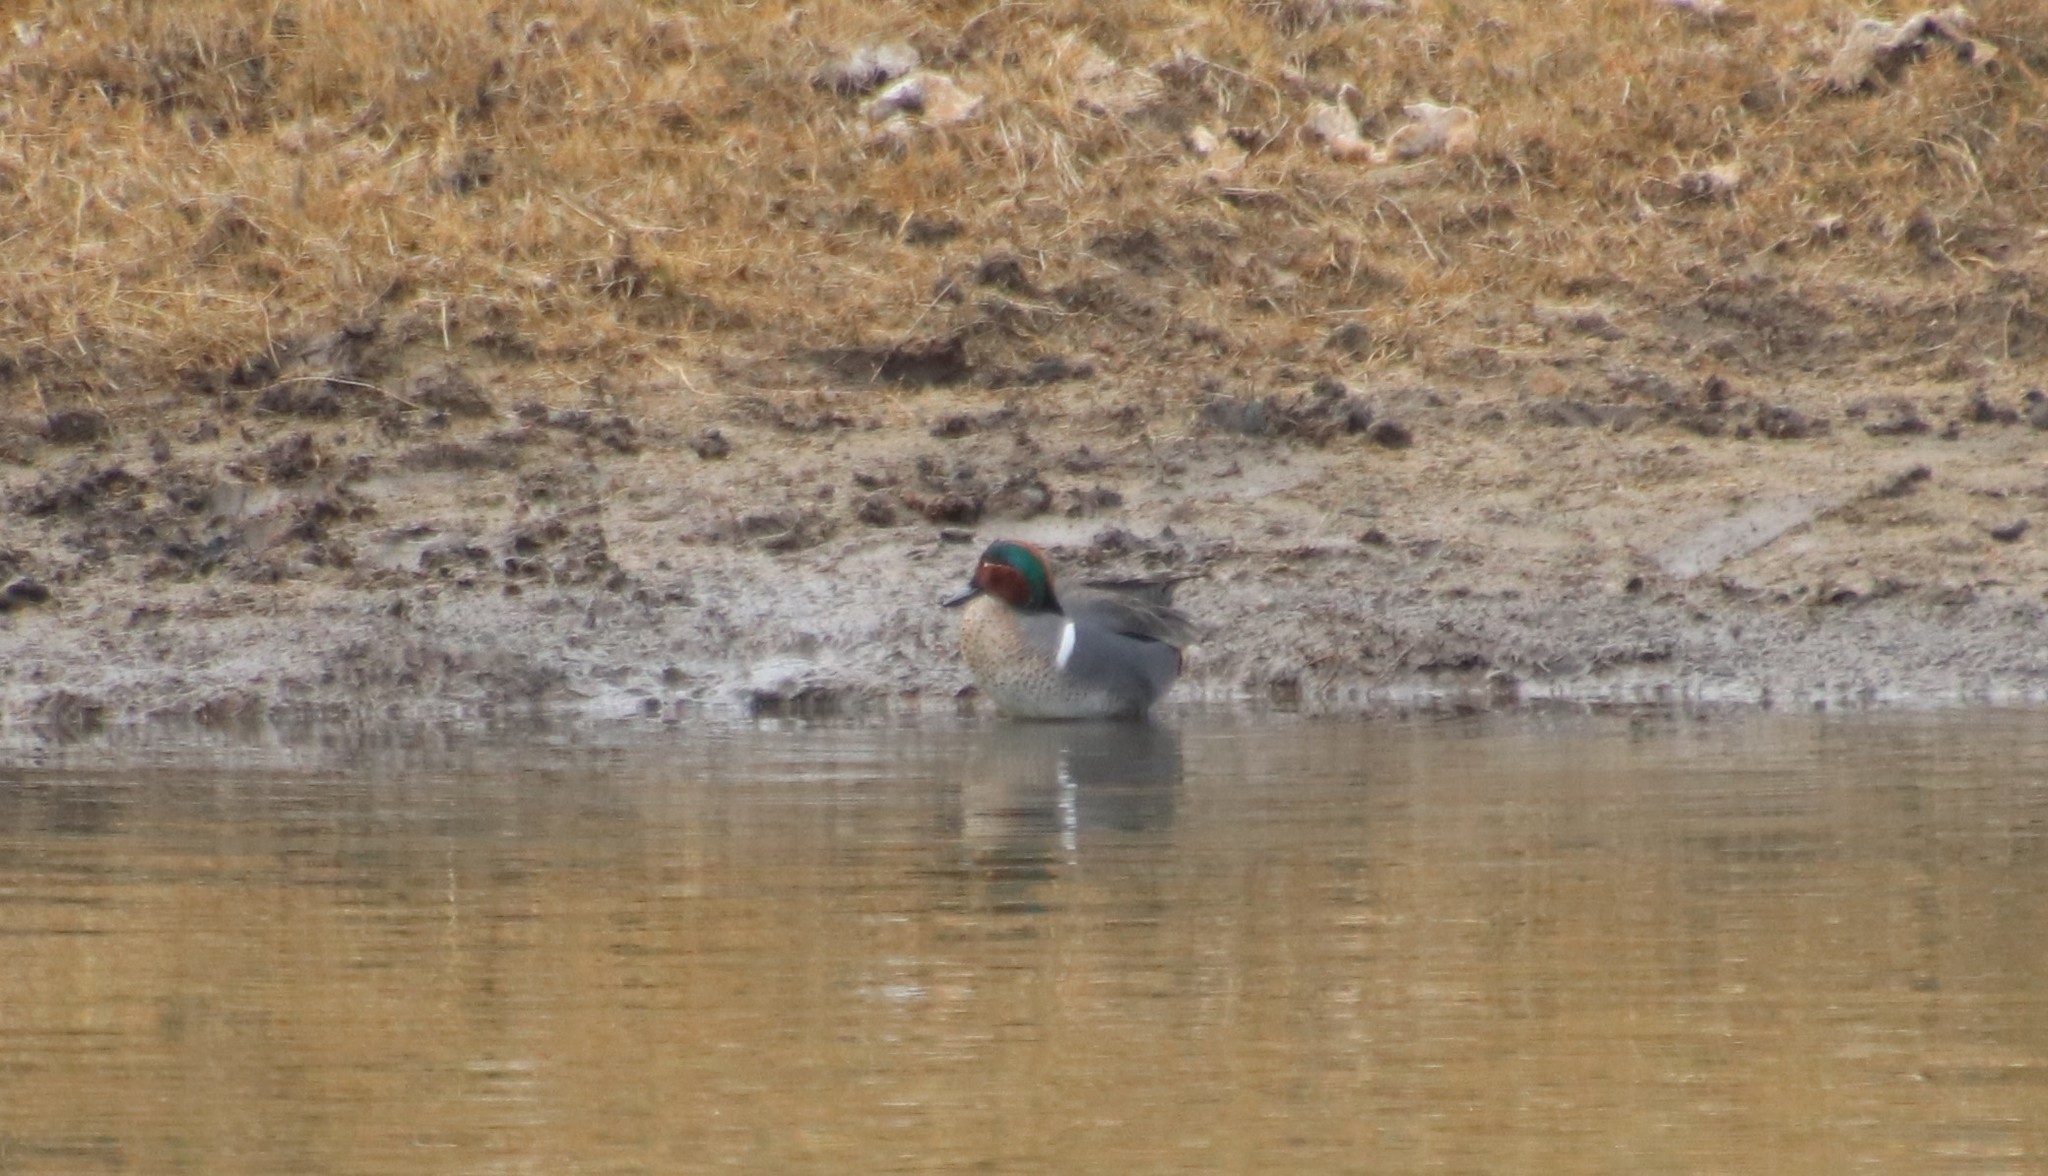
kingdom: Animalia
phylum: Chordata
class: Aves
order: Anseriformes
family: Anatidae
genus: Anas
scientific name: Anas crecca
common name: Eurasian teal
